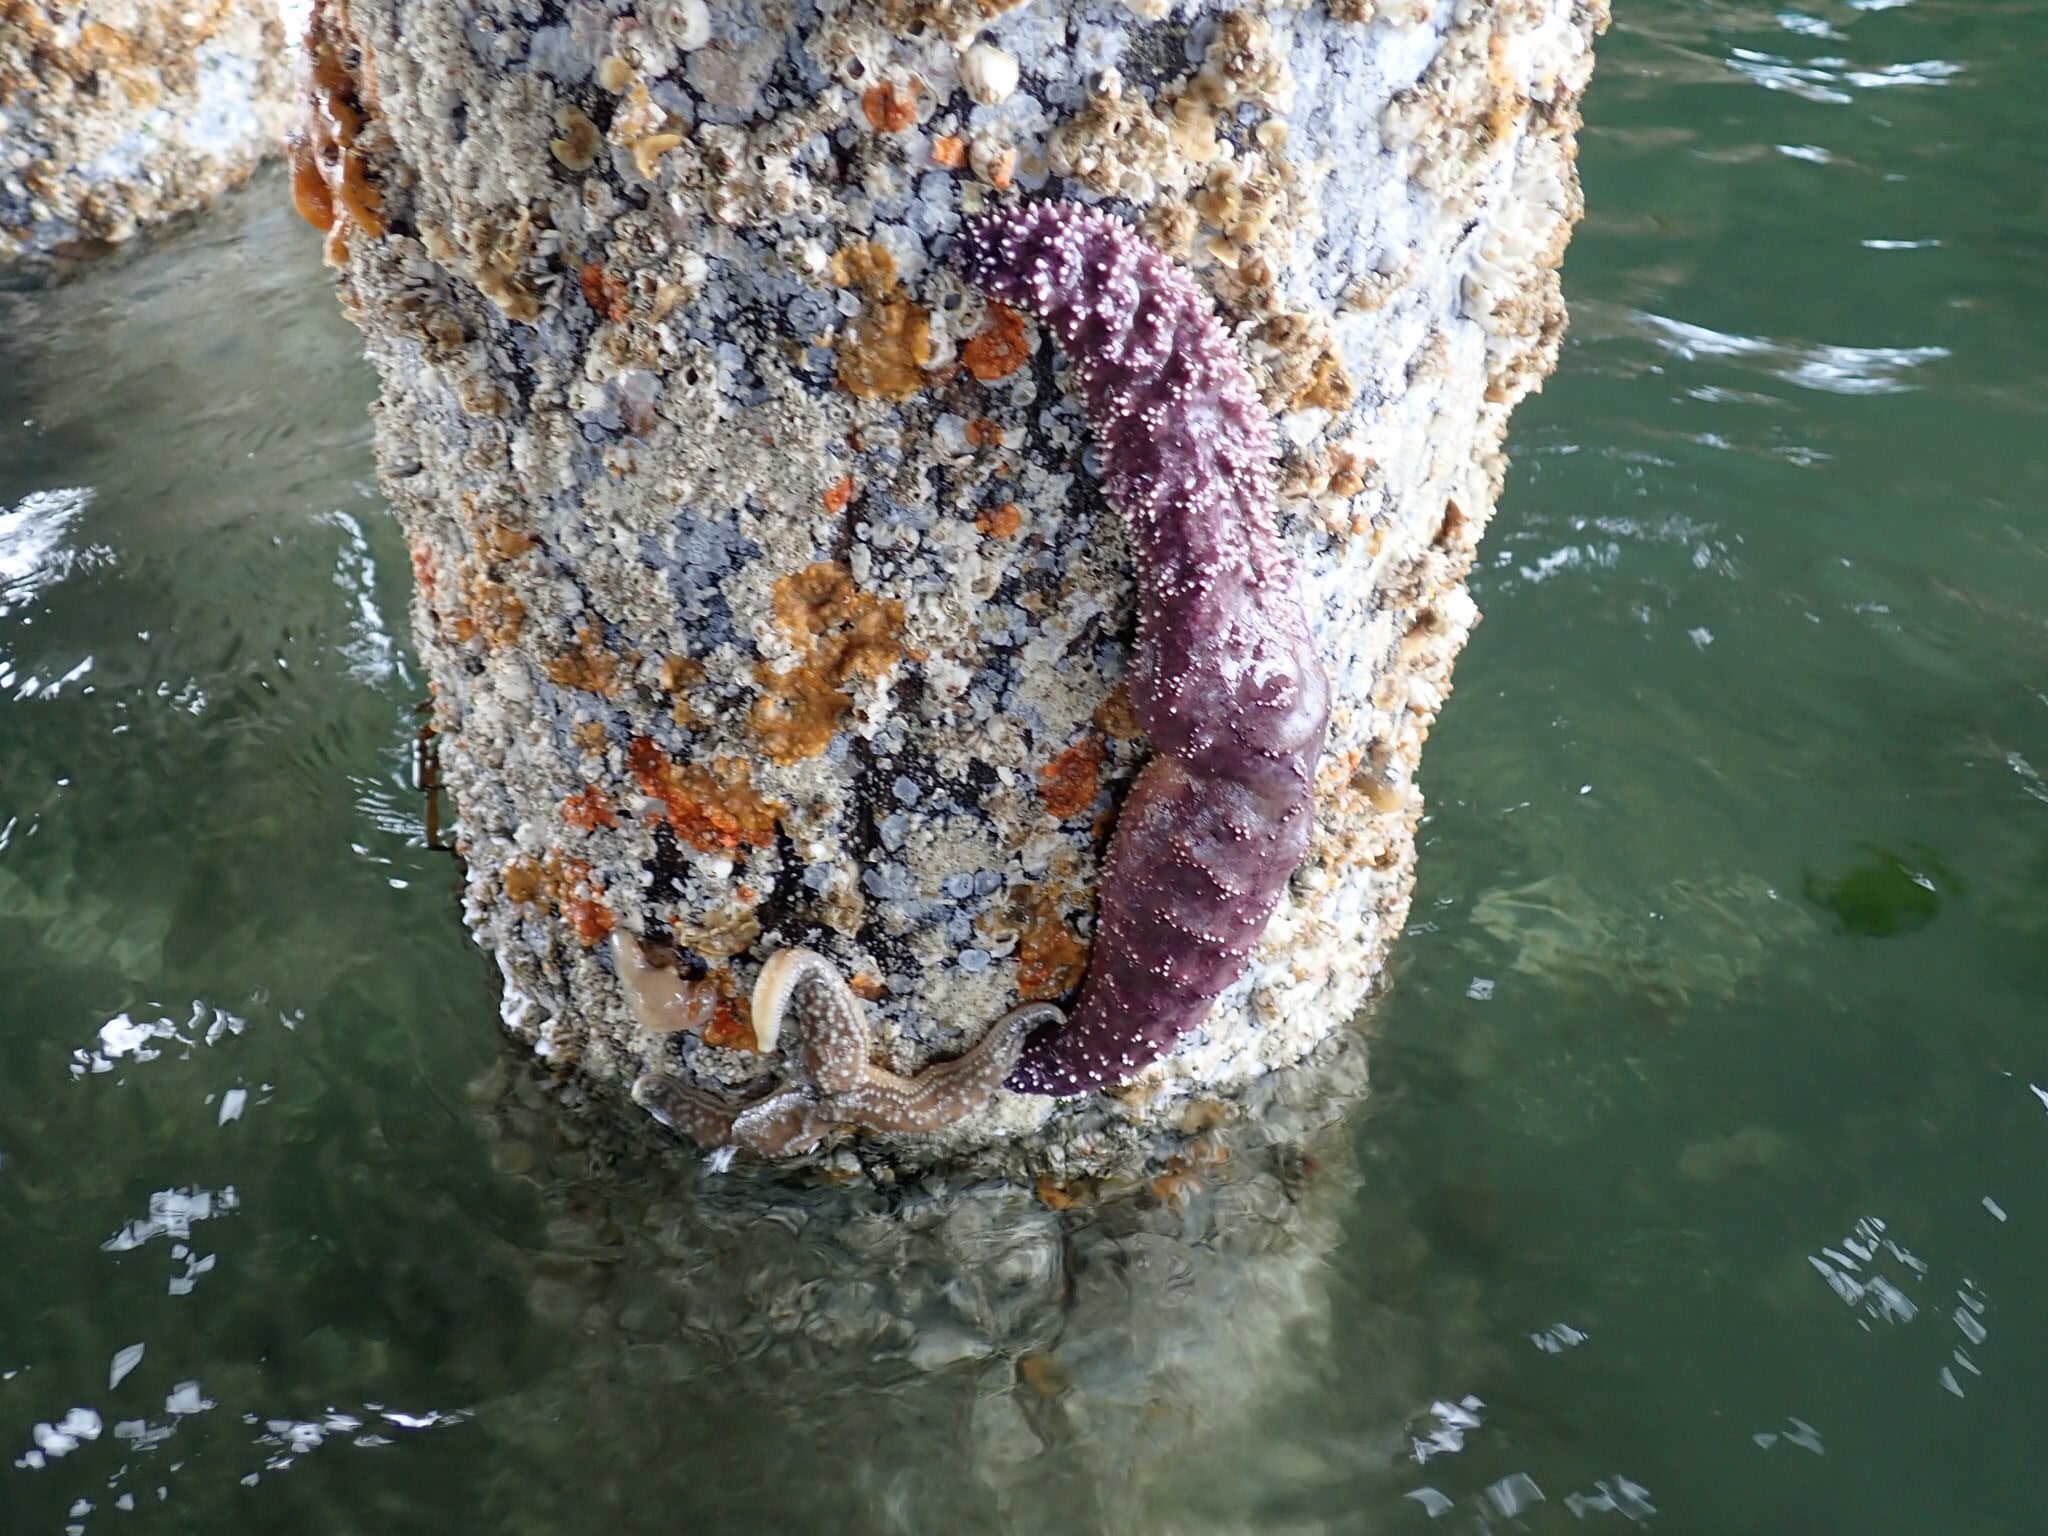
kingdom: Animalia
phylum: Echinodermata
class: Asteroidea
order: Forcipulatida
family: Asteriidae
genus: Pisaster
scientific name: Pisaster ochraceus
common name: Ochre stars
